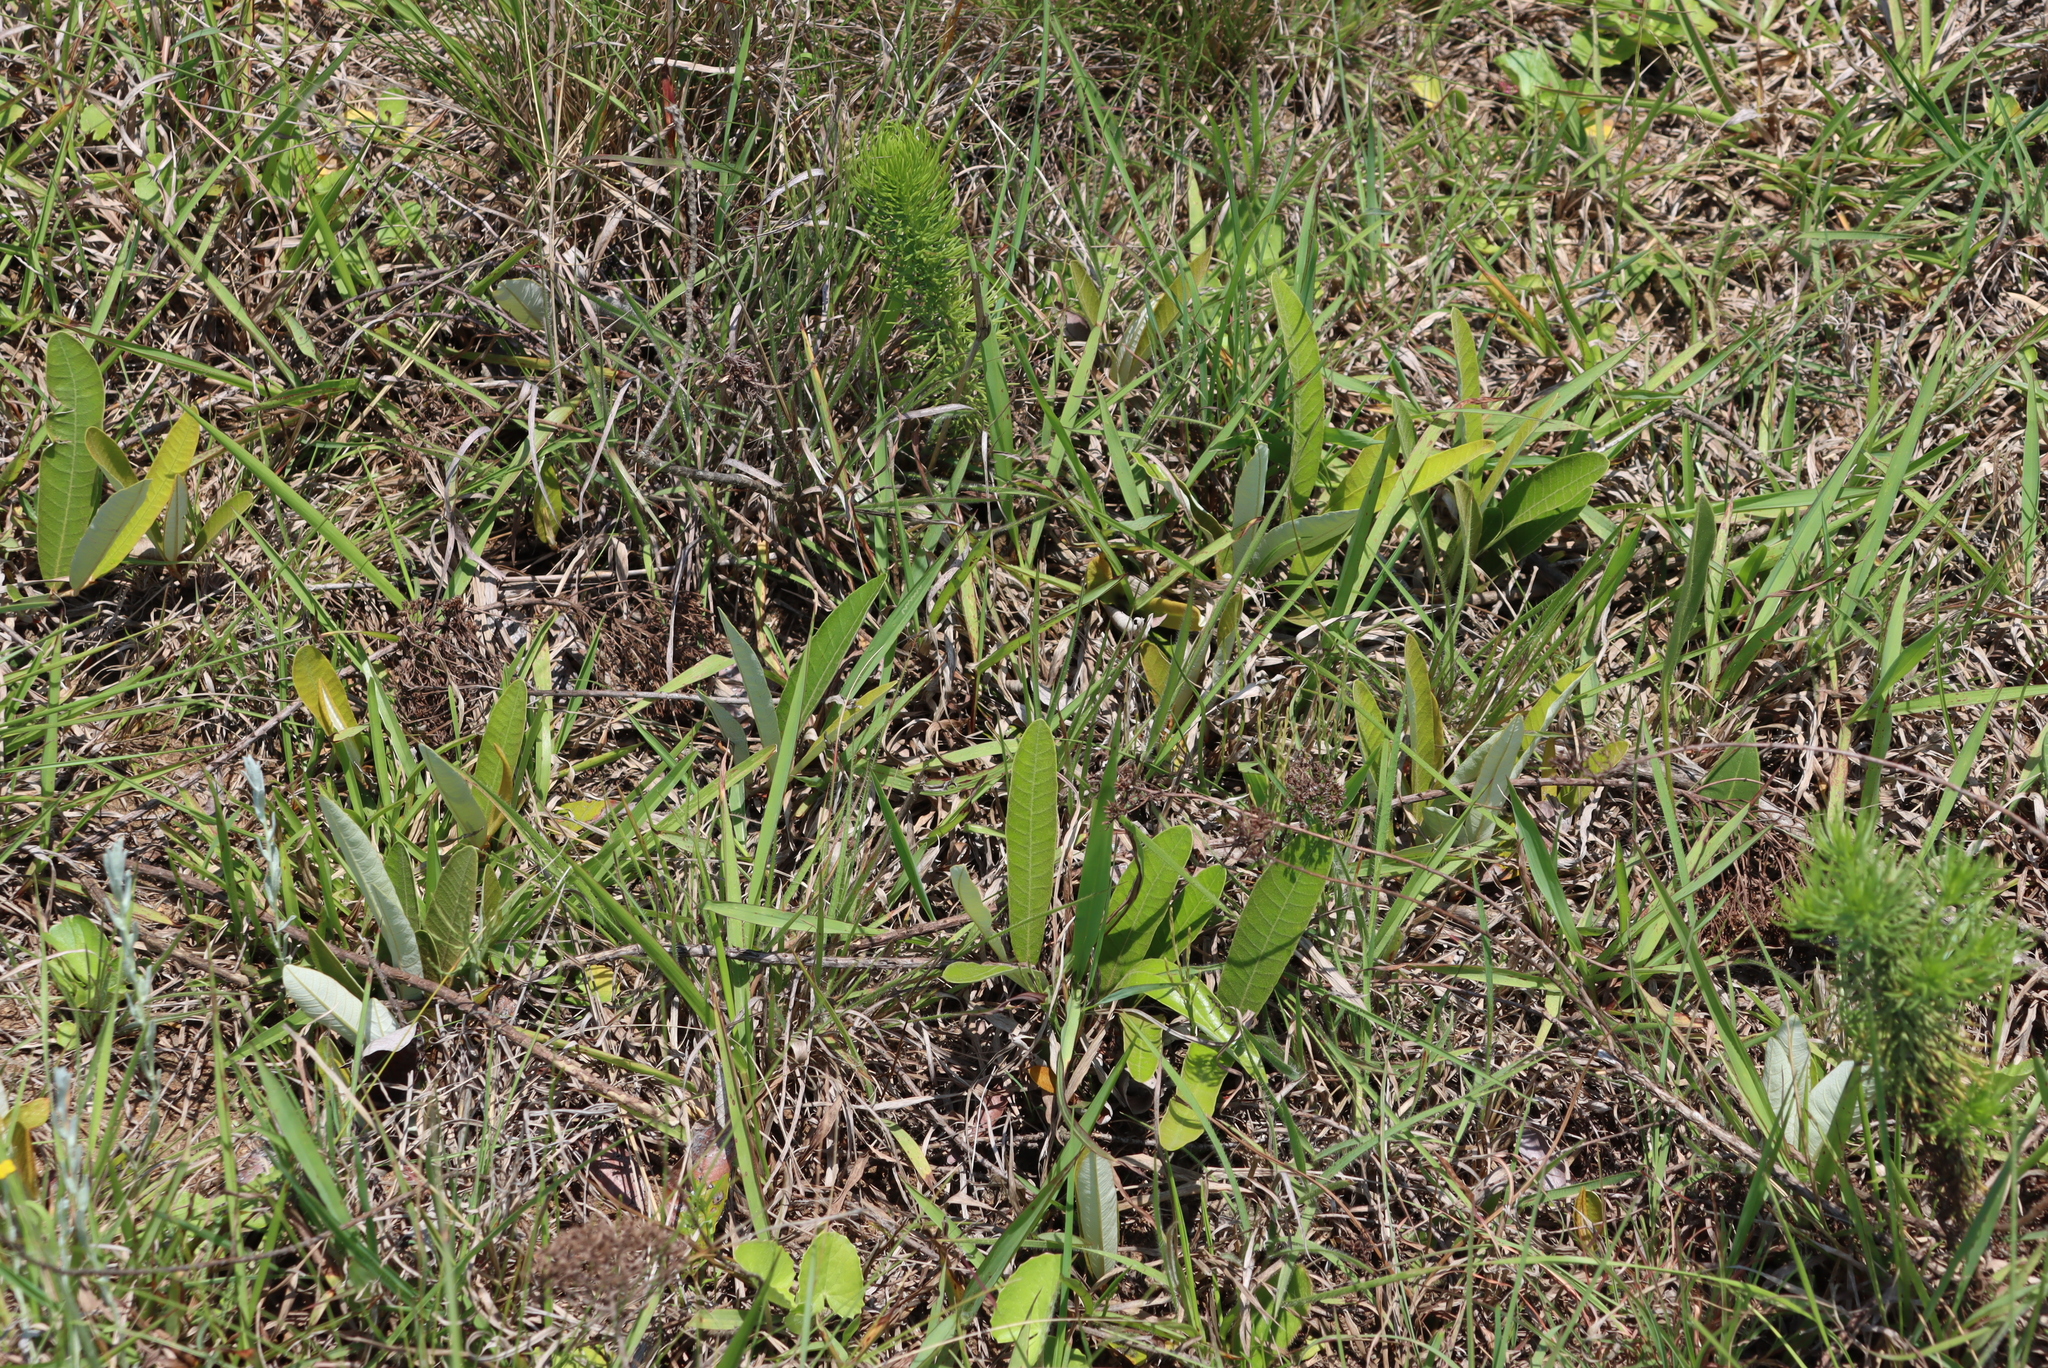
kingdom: Plantae
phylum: Tracheophyta
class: Magnoliopsida
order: Malpighiales
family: Chrysobalanaceae
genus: Parinari
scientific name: Parinari capensis
